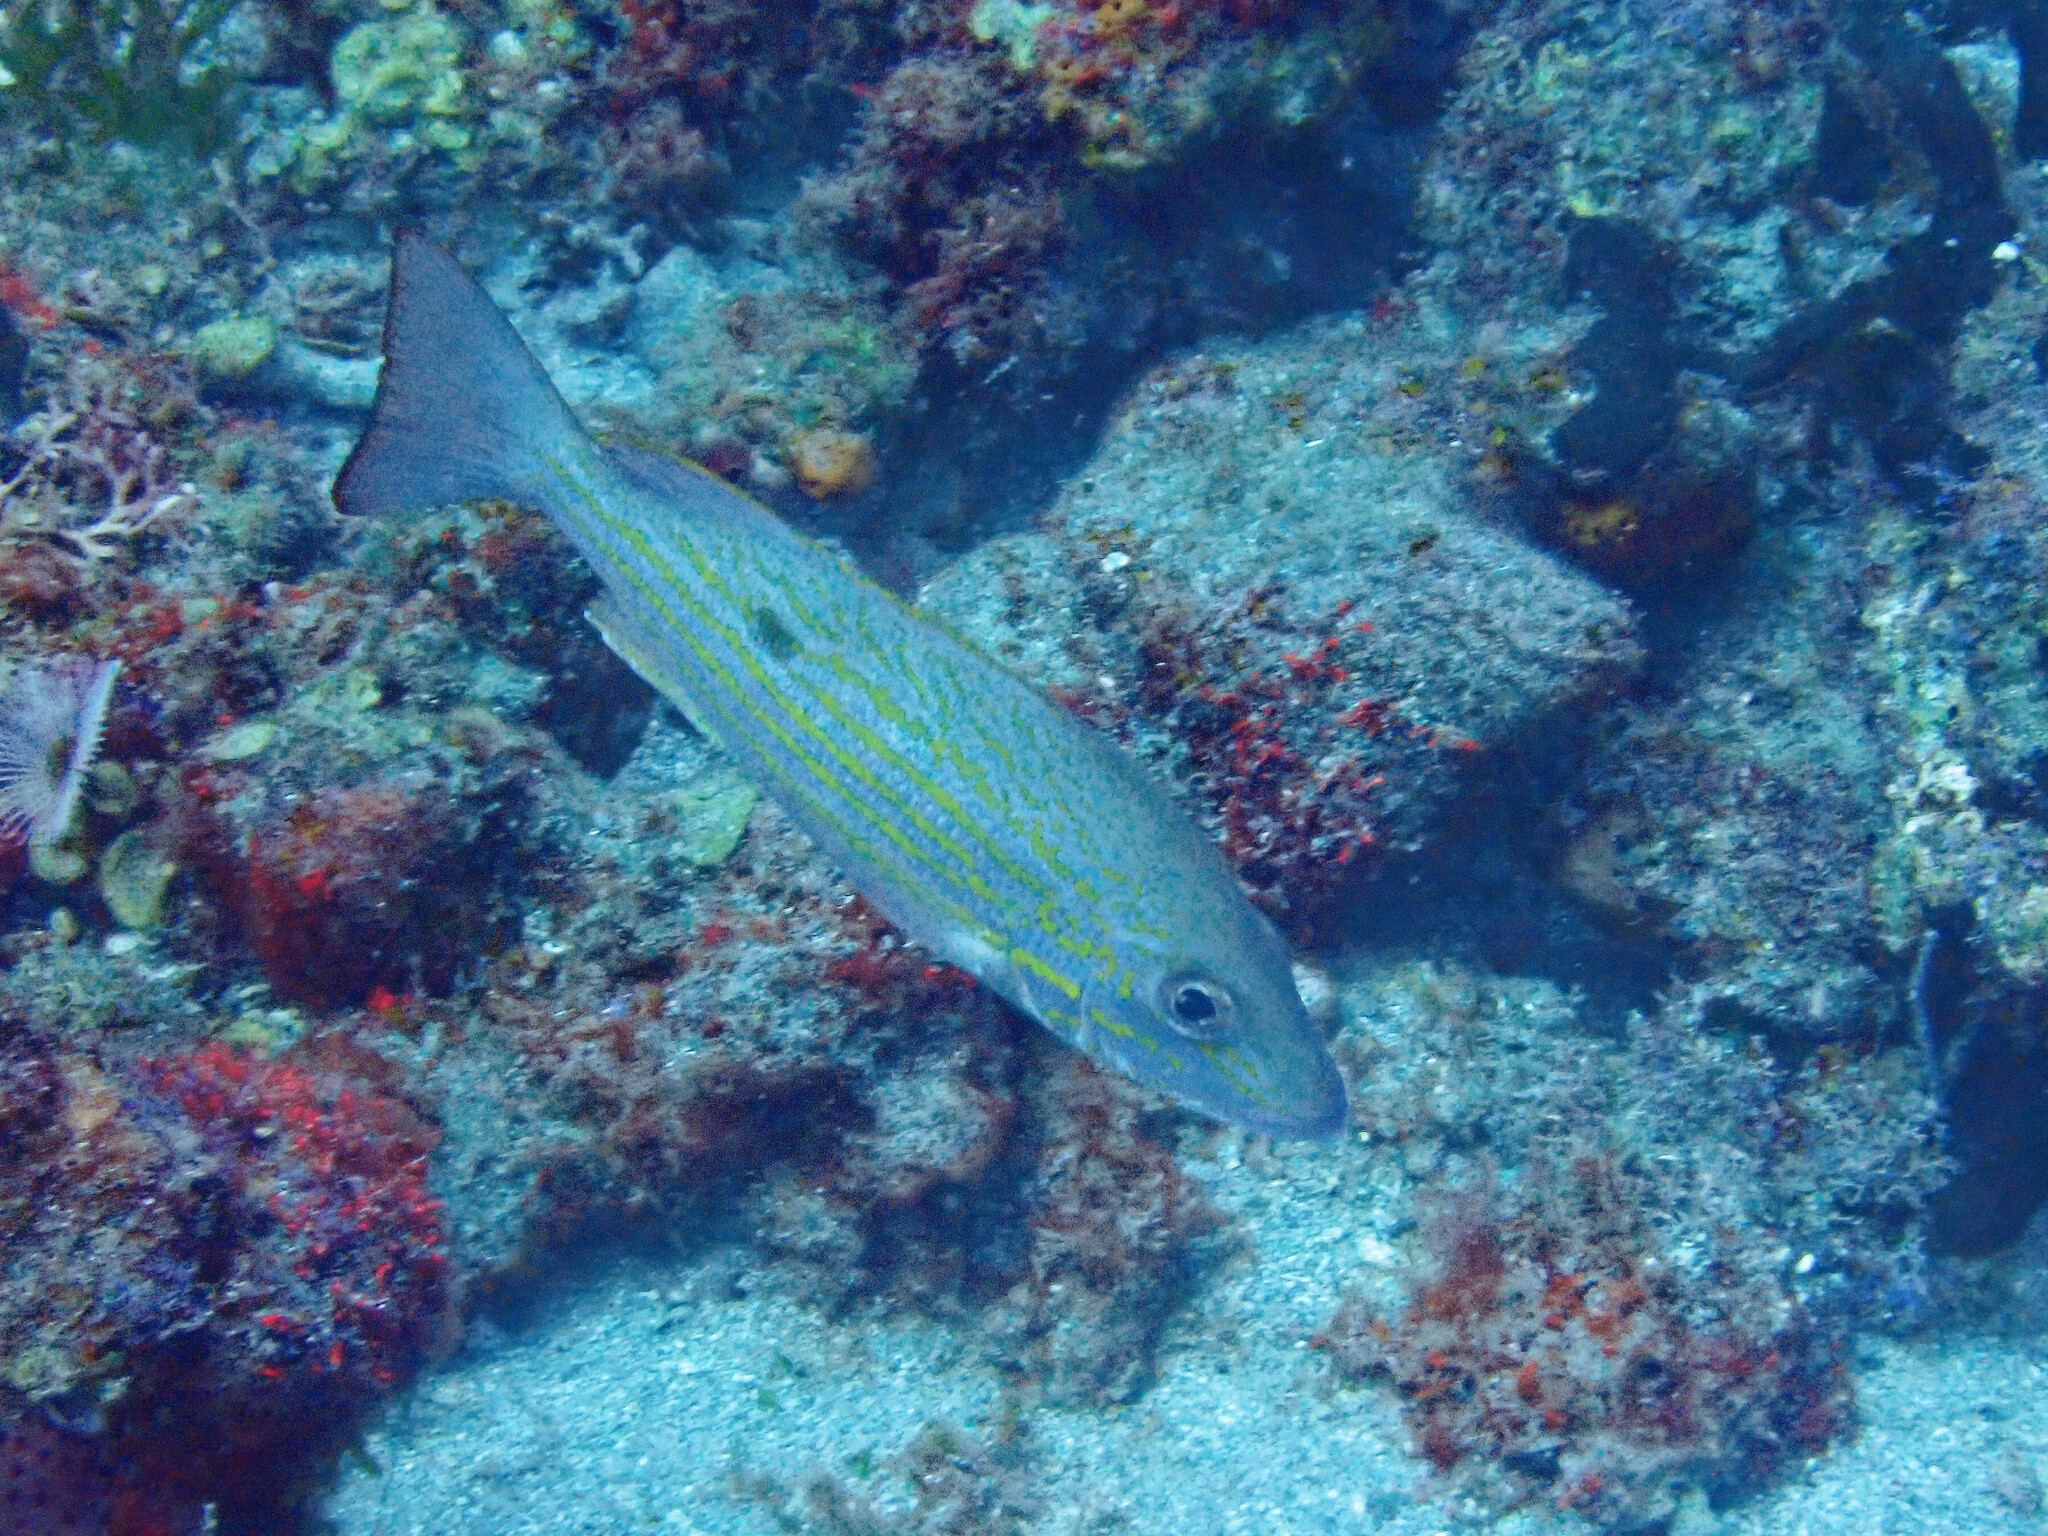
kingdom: Animalia
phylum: Chordata
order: Perciformes
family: Lutjanidae
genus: Lutjanus
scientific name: Lutjanus synagris
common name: Lane snapper
